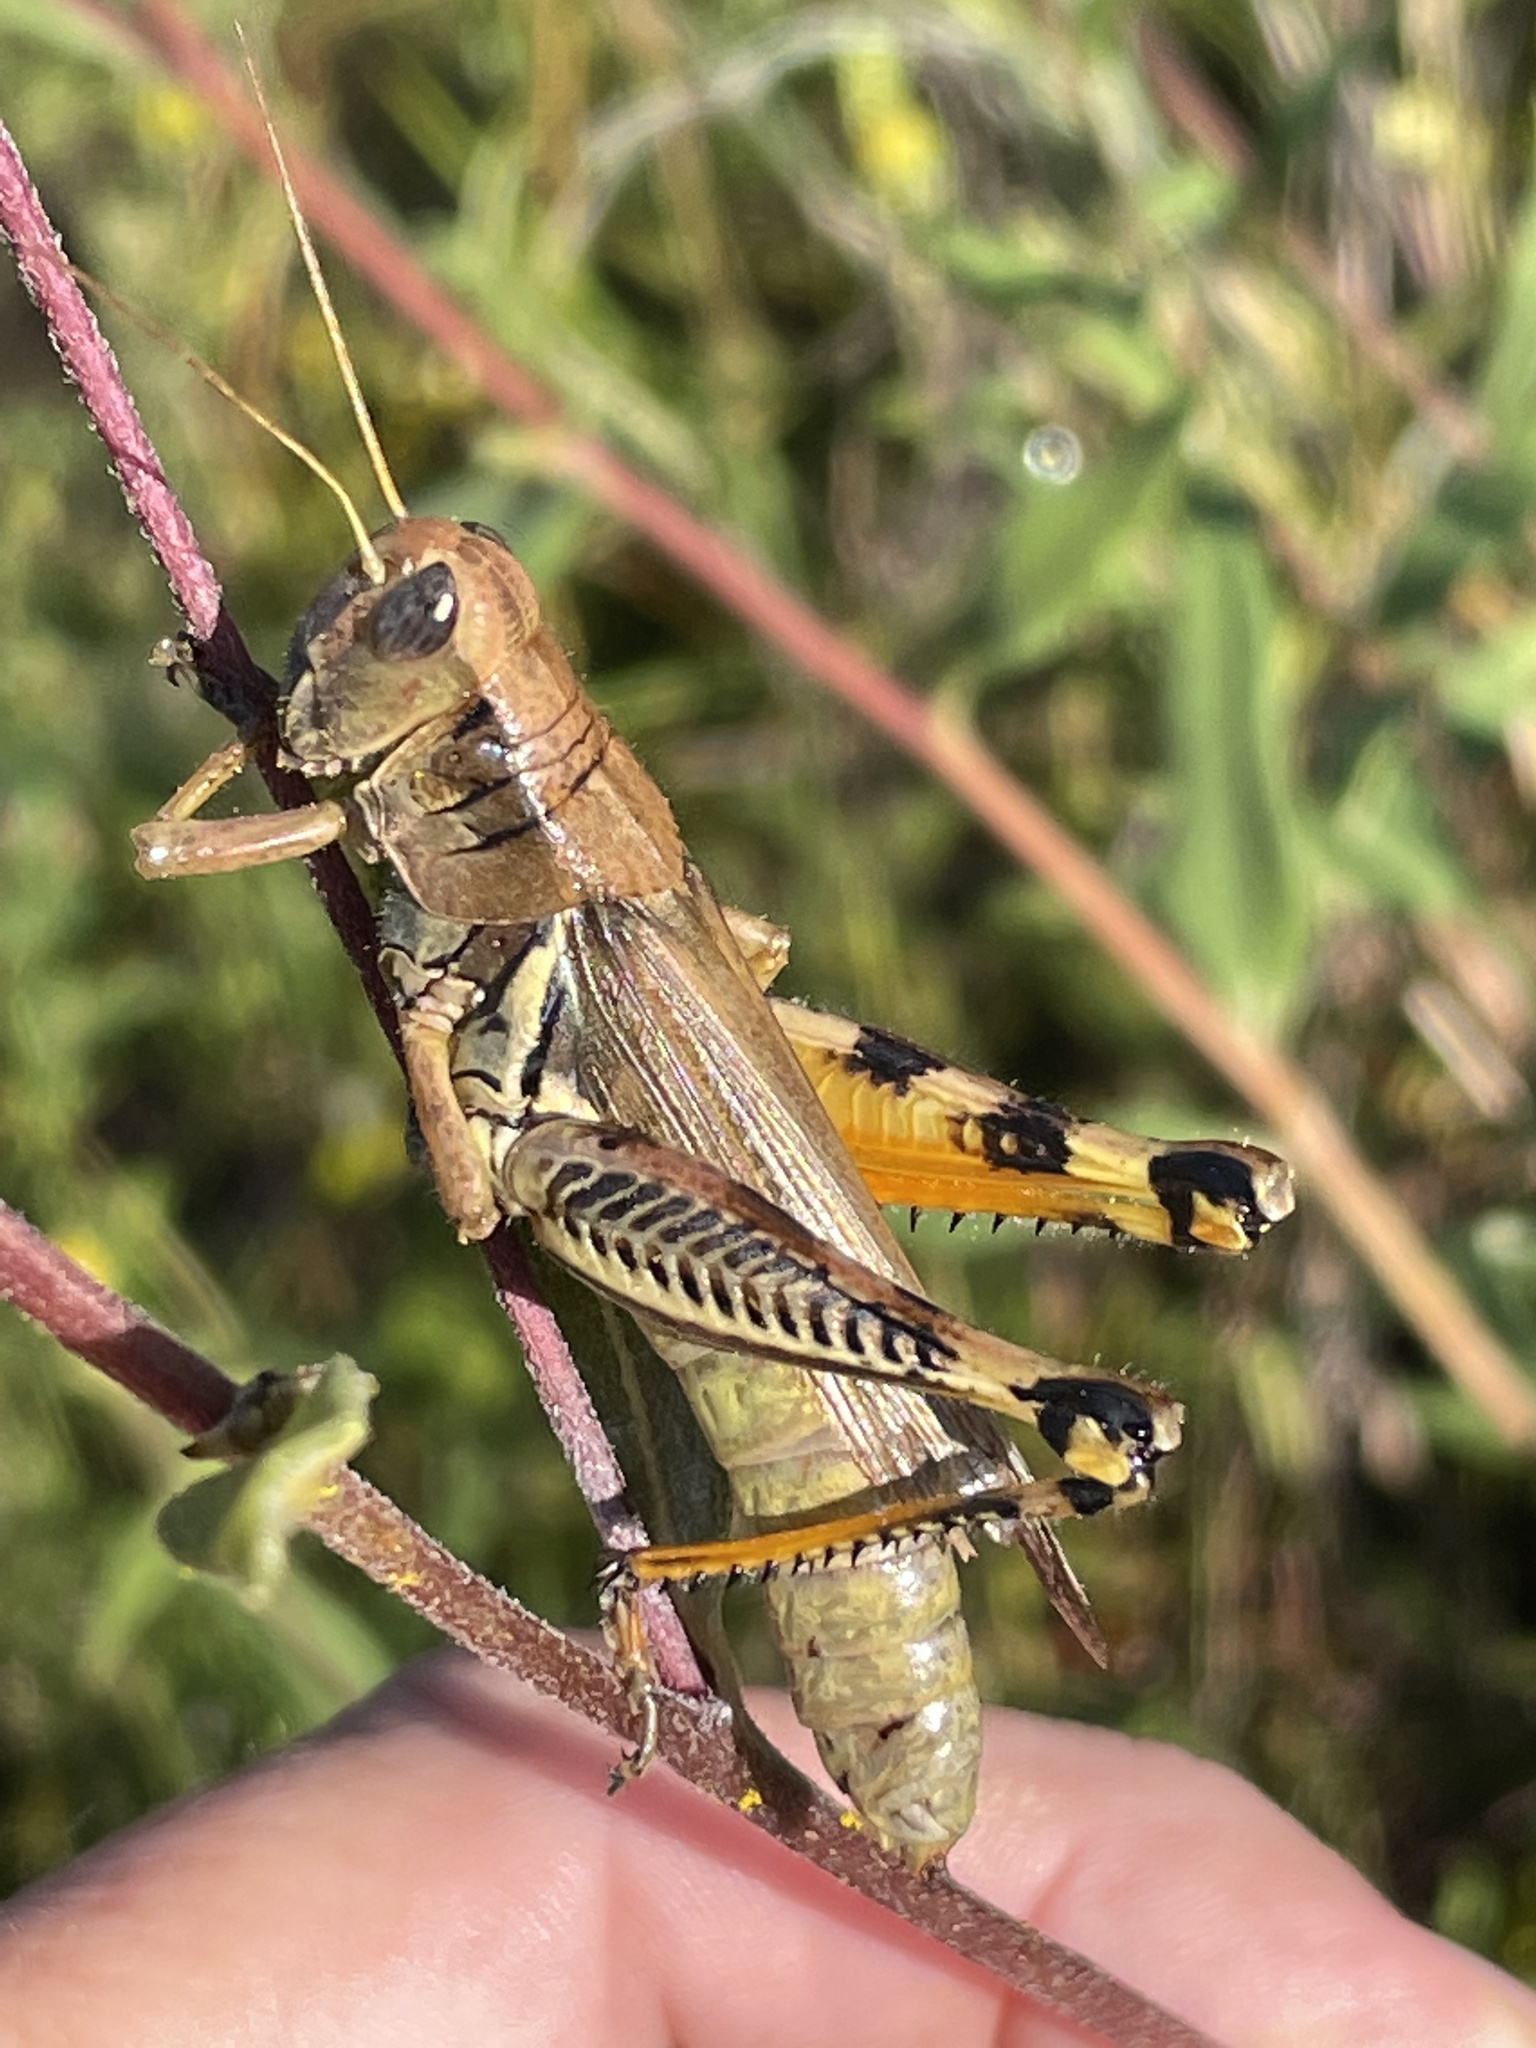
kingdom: Animalia
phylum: Arthropoda
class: Insecta
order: Orthoptera
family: Acrididae
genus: Melanoplus
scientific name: Melanoplus differentialis
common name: Differential grasshopper
